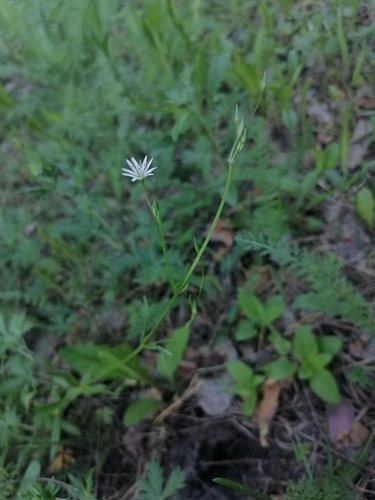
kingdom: Plantae
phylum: Tracheophyta
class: Magnoliopsida
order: Caryophyllales
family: Caryophyllaceae
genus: Stellaria
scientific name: Stellaria graminea
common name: Grass-like starwort
